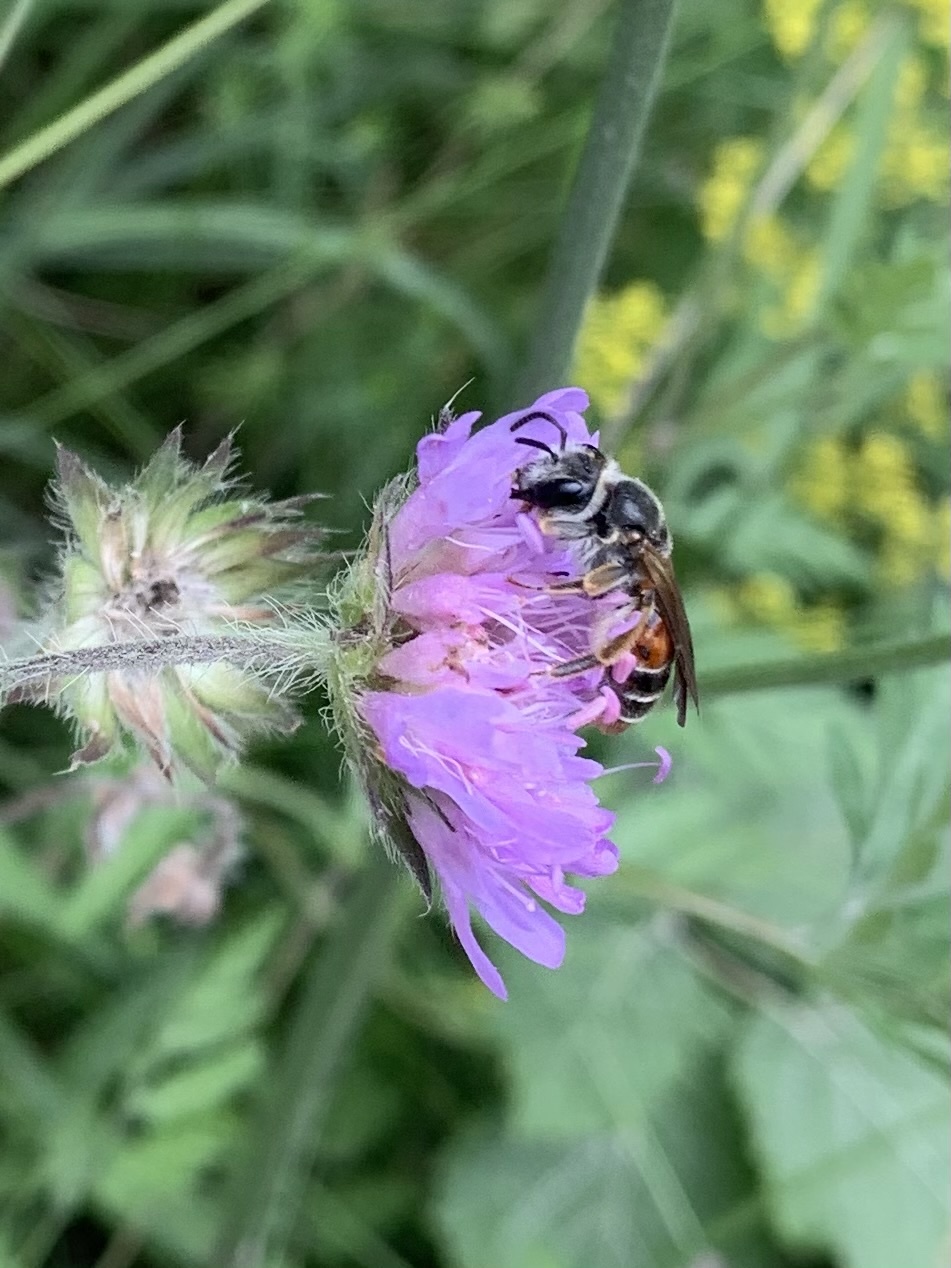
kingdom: Animalia
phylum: Arthropoda
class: Insecta
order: Hymenoptera
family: Andrenidae
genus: Andrena
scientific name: Andrena hattorfiana
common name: Large scabious mining bee
